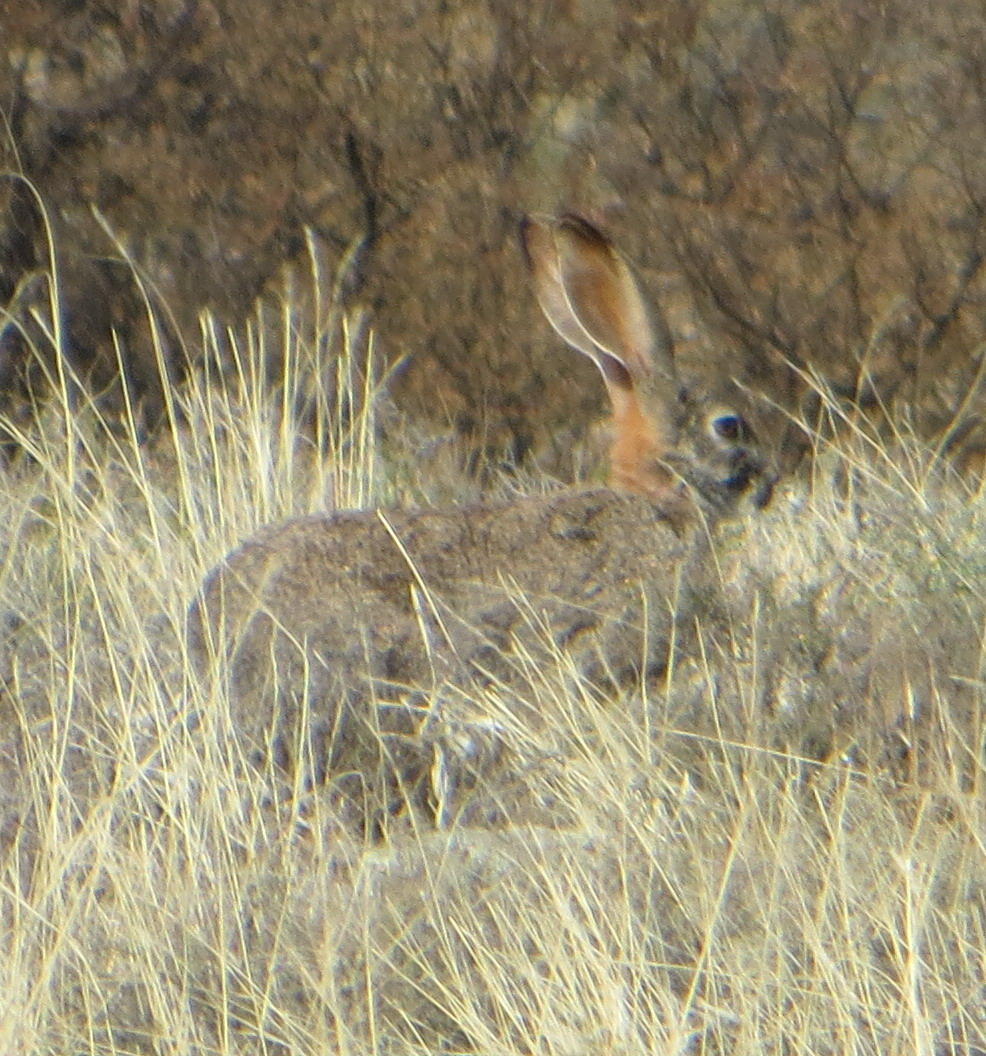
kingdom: Animalia
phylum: Chordata
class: Mammalia
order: Lagomorpha
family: Leporidae
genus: Lepus
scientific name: Lepus saxatilis
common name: Scrub hare
